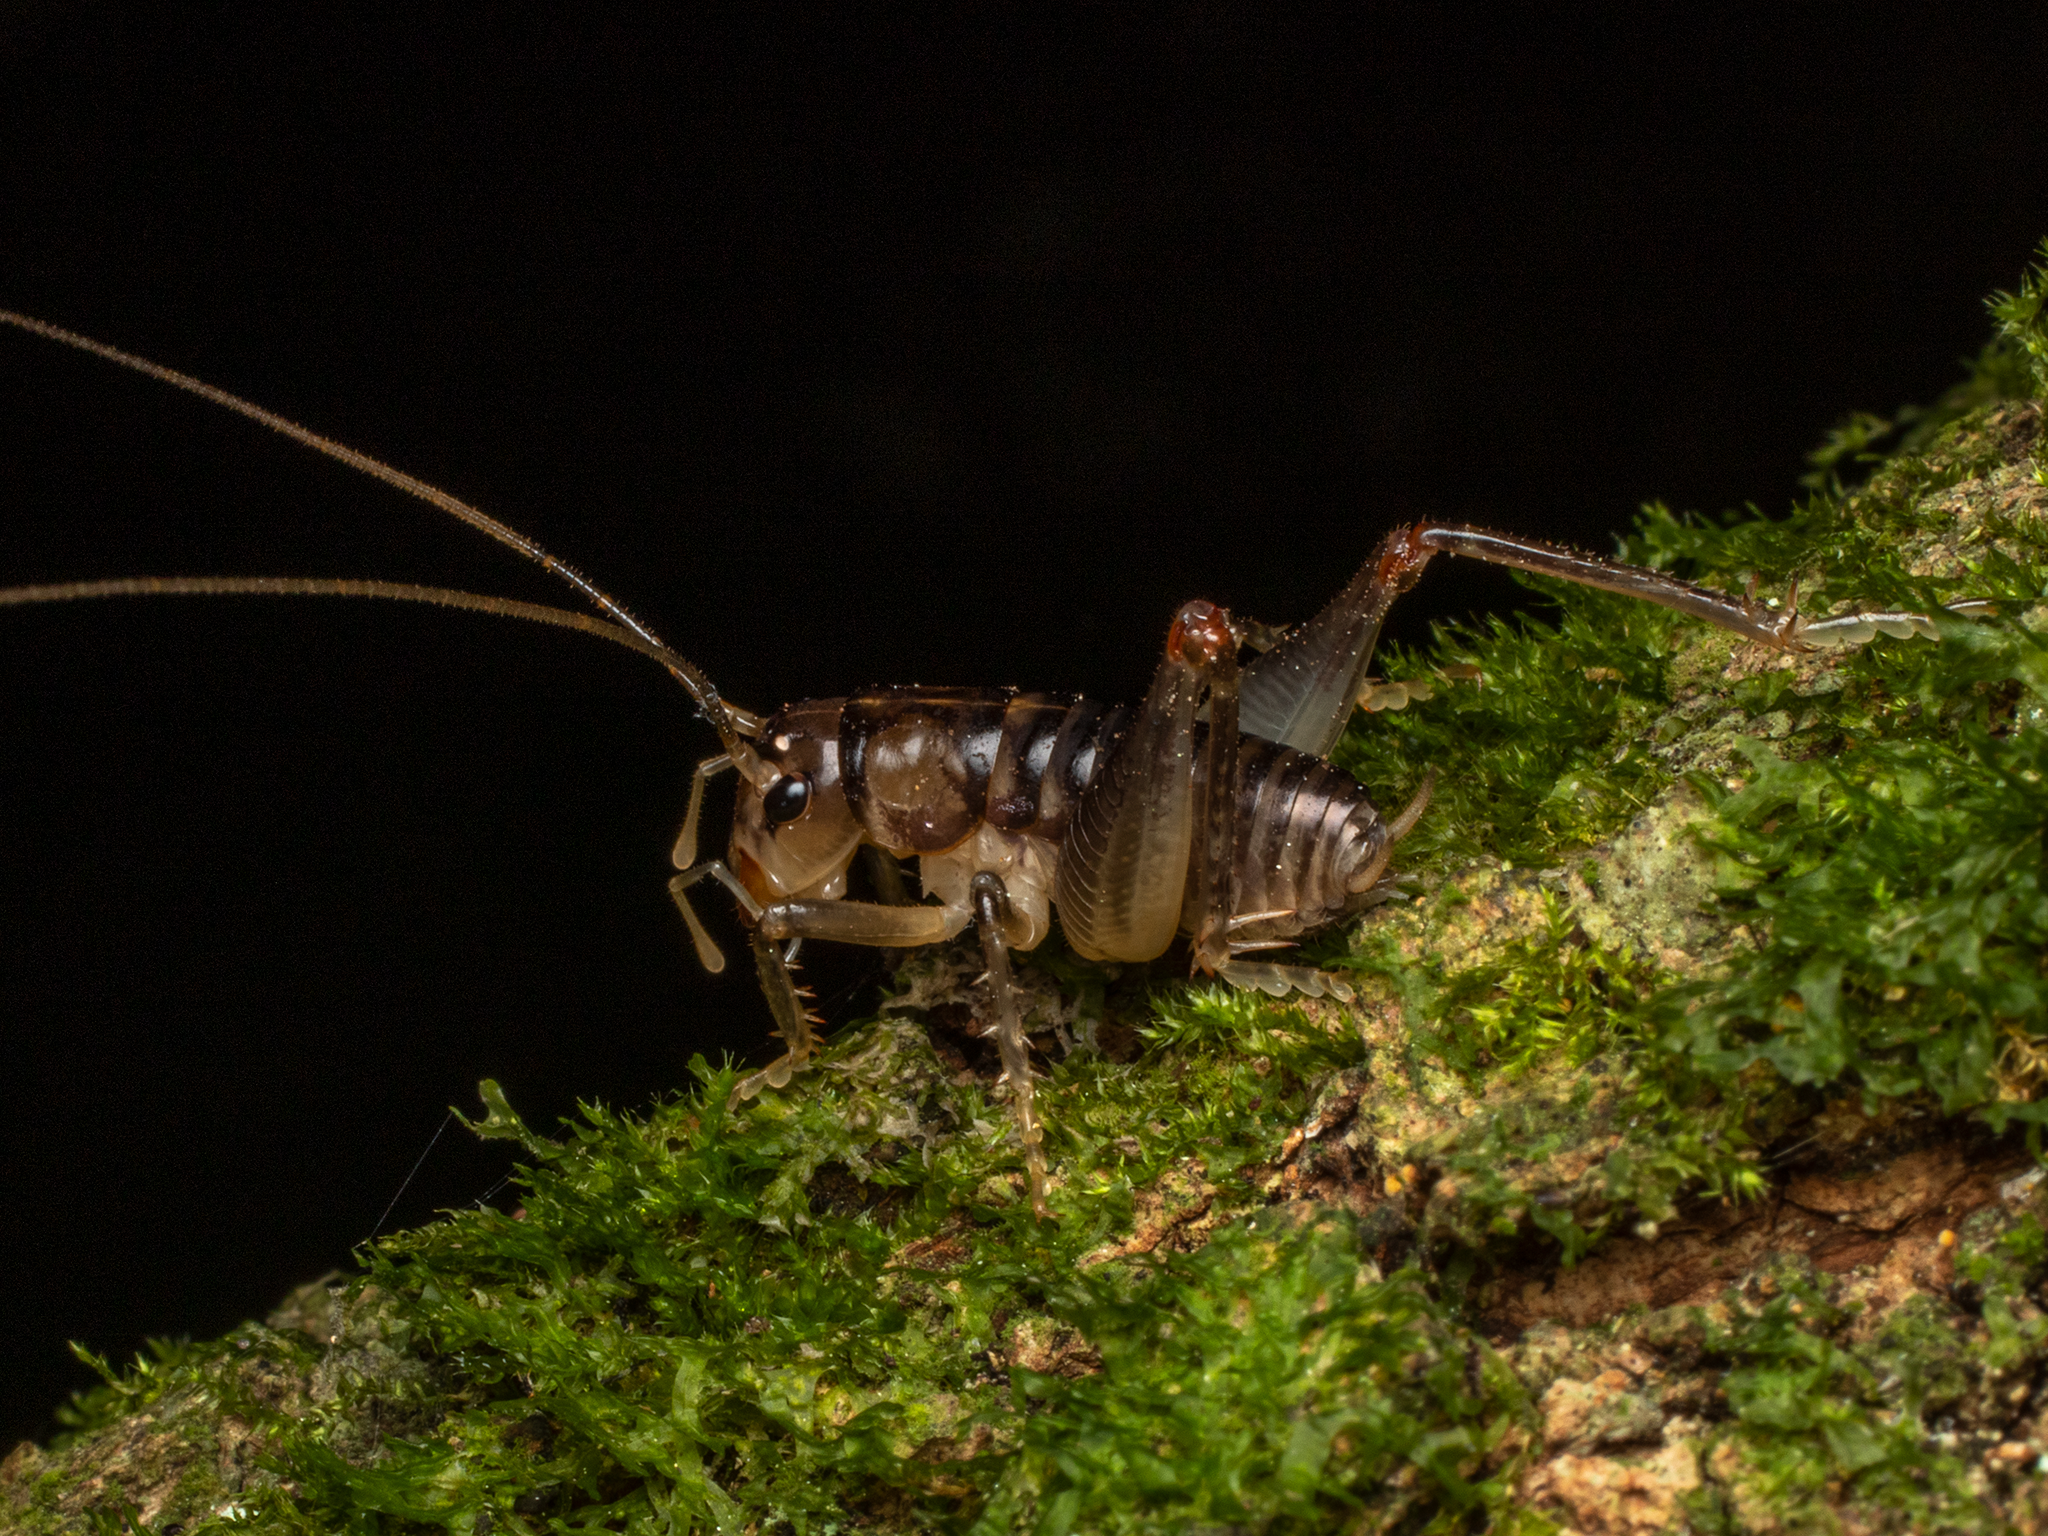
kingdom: Animalia
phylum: Arthropoda
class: Insecta
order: Orthoptera
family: Anostostomatidae
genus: Hemiandrus
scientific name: Hemiandrus maia
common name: Otago ground weta
